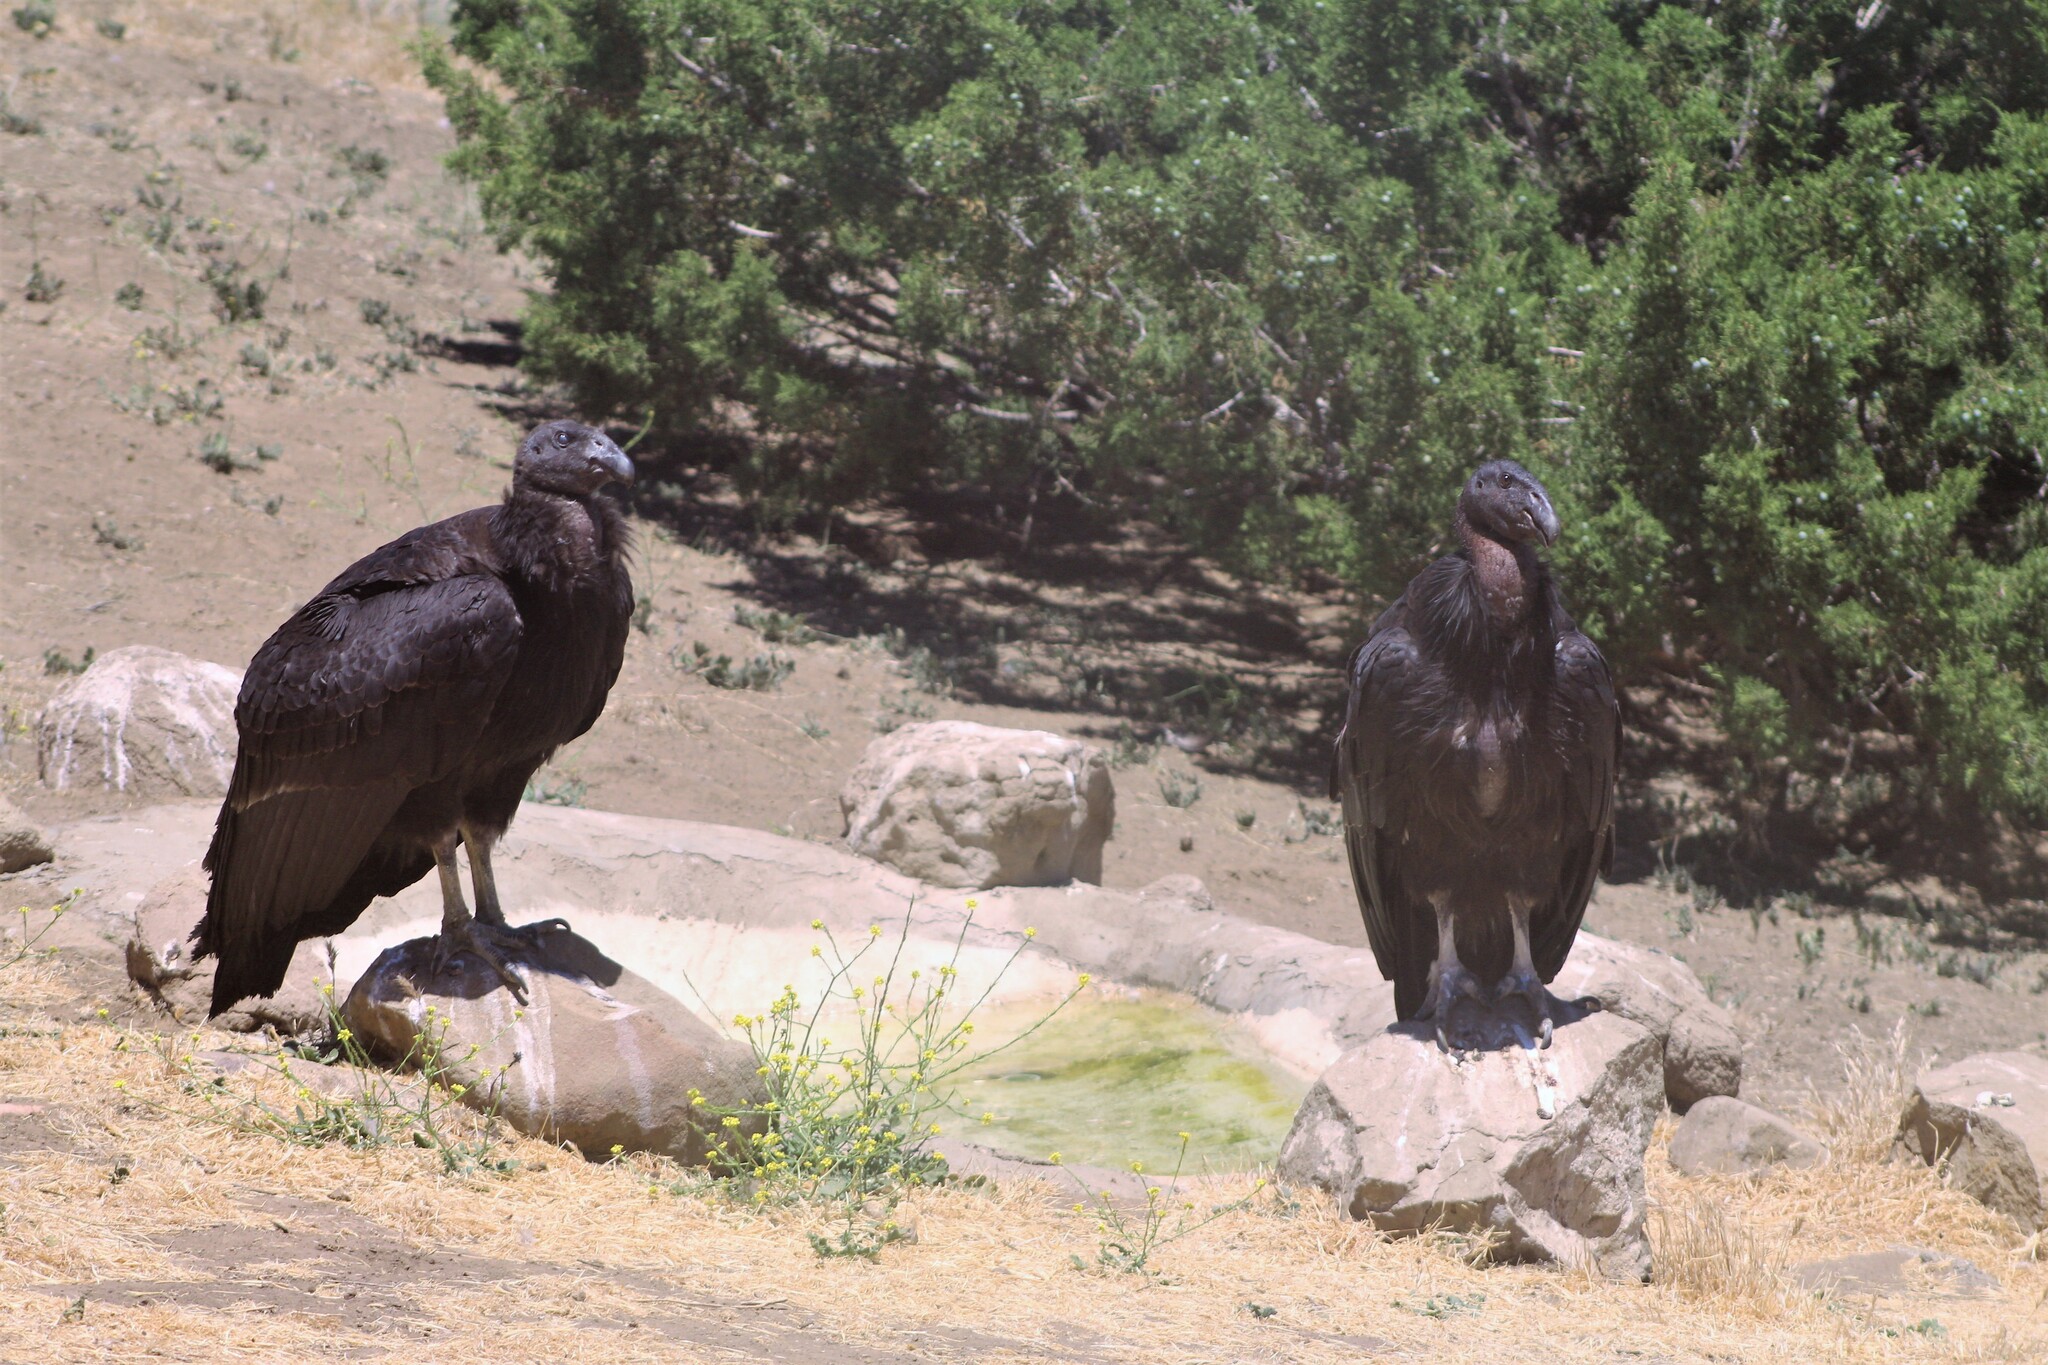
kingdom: Animalia
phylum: Chordata
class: Aves
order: Accipitriformes
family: Cathartidae
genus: Gymnogyps
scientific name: Gymnogyps californianus
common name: California condor
